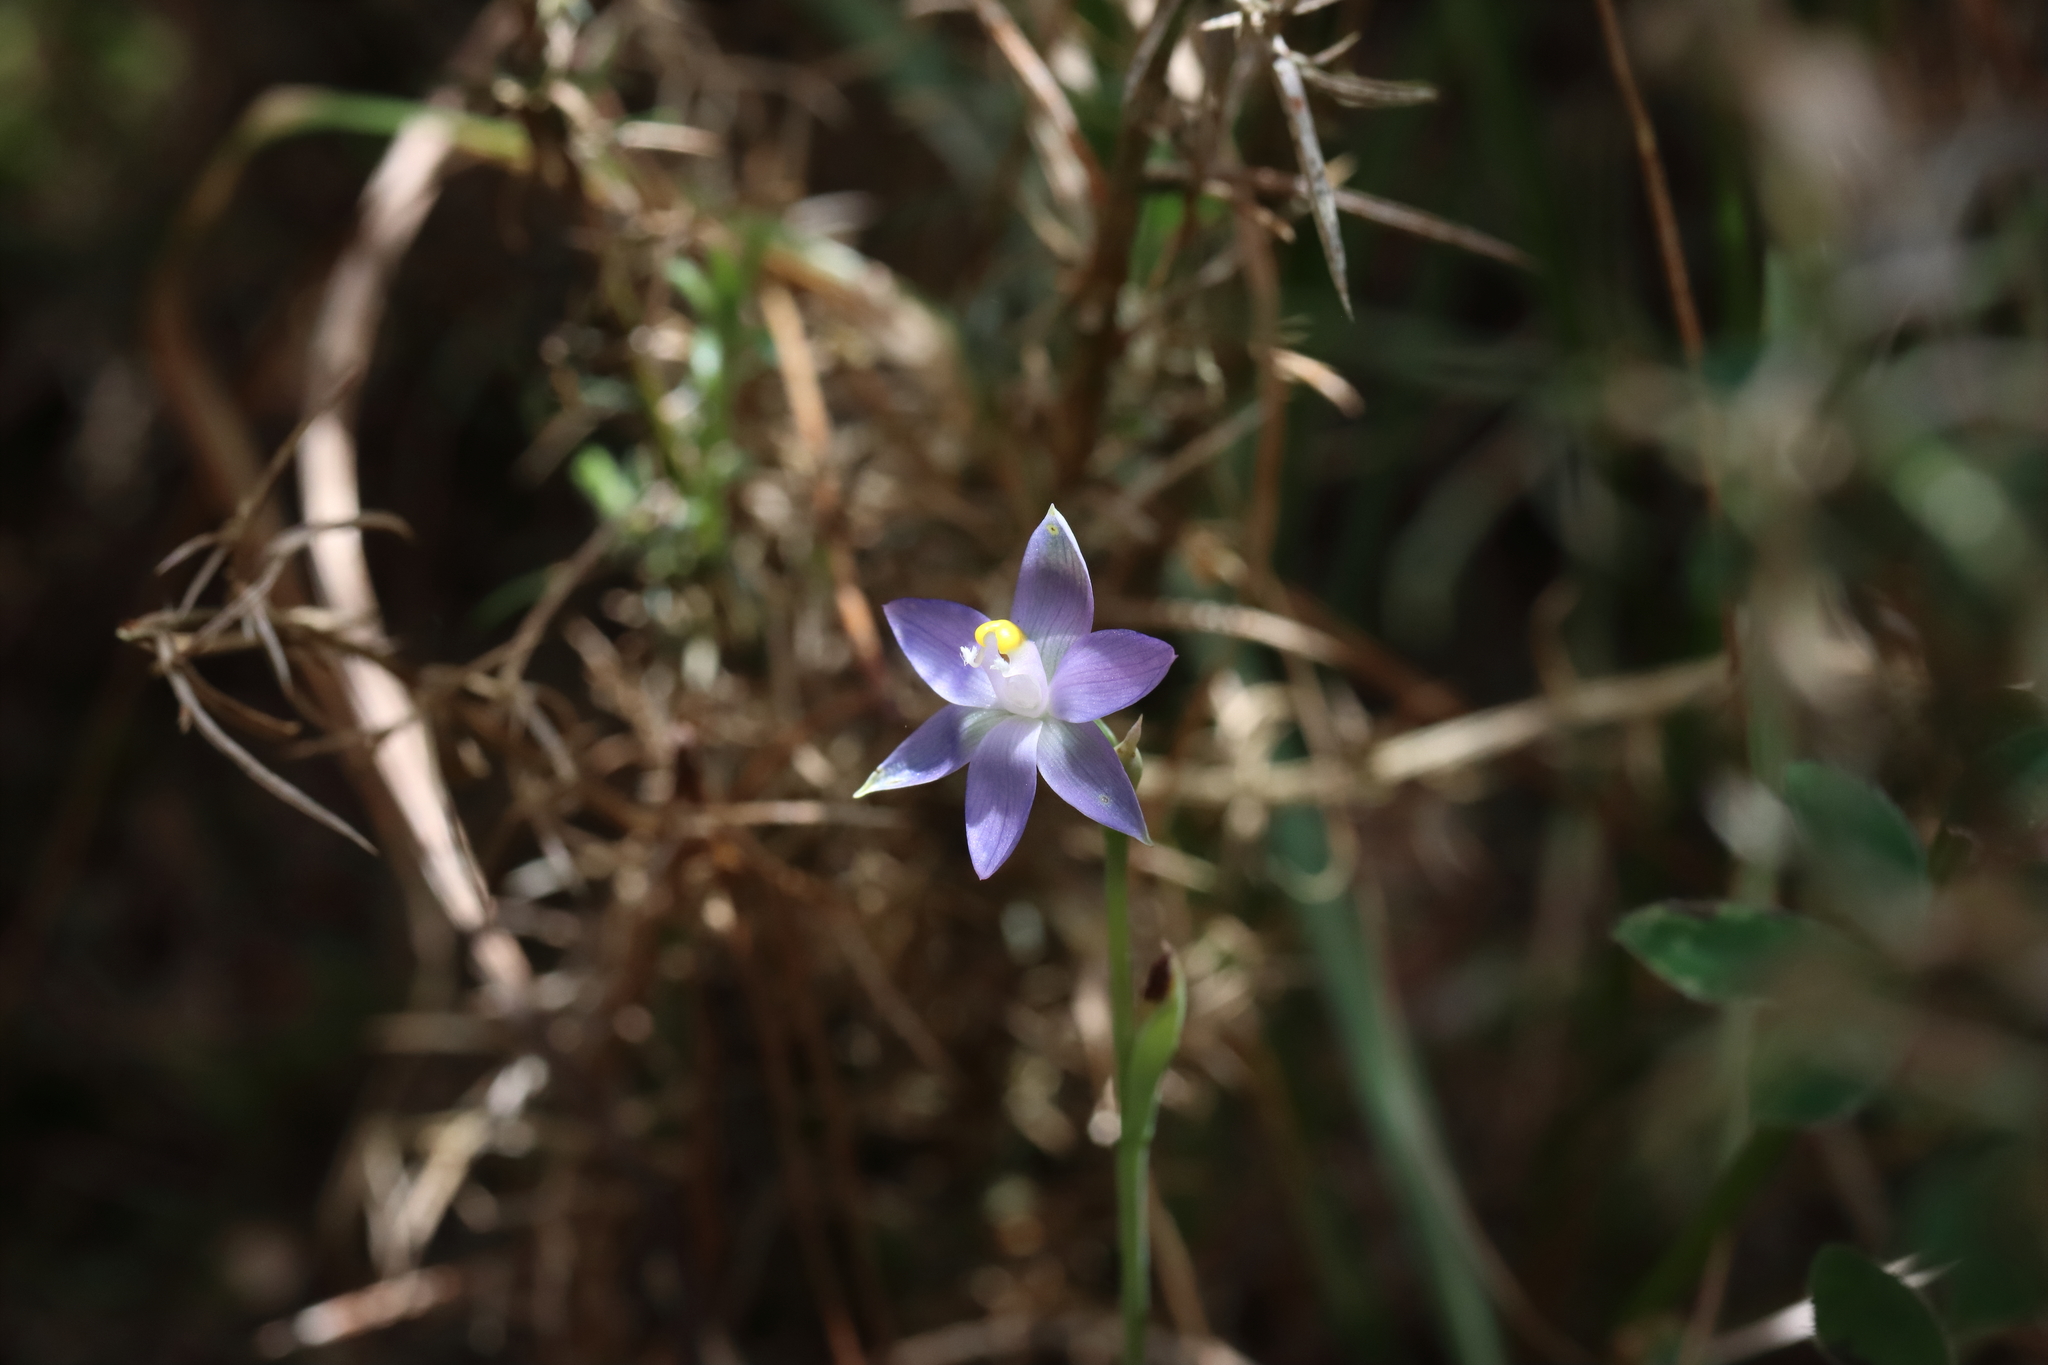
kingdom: Plantae
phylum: Tracheophyta
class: Liliopsida
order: Asparagales
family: Orchidaceae
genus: Thelymitra
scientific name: Thelymitra pauciflora
